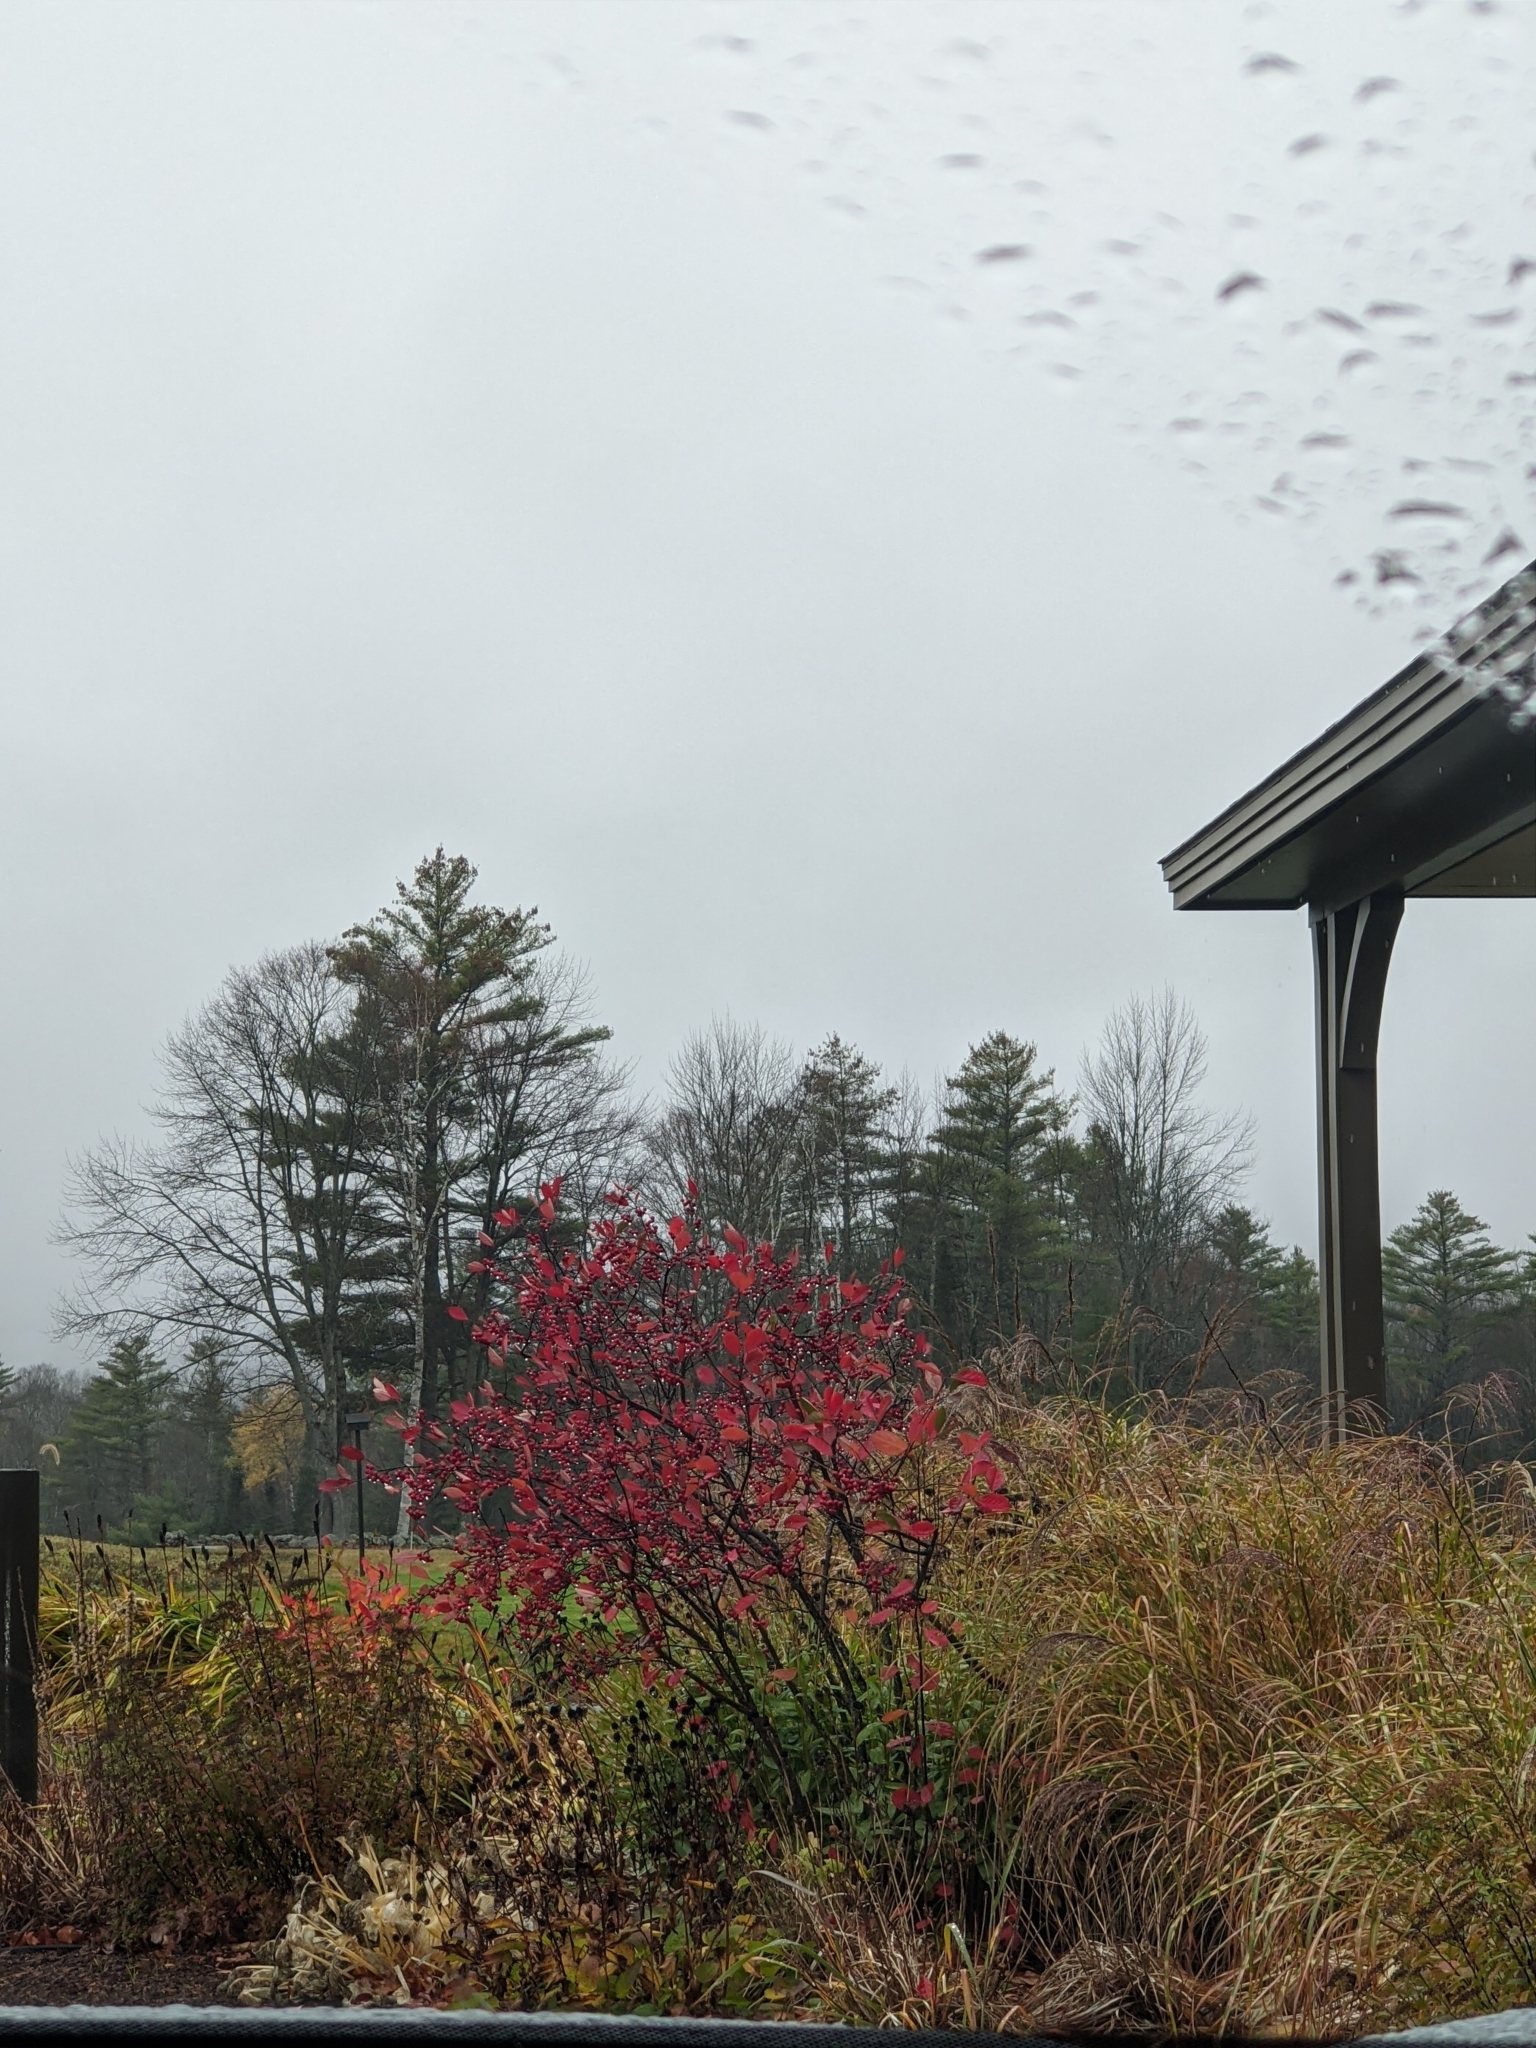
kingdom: Plantae
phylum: Tracheophyta
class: Pinopsida
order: Pinales
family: Pinaceae
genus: Pinus
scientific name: Pinus strobus
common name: Weymouth pine
